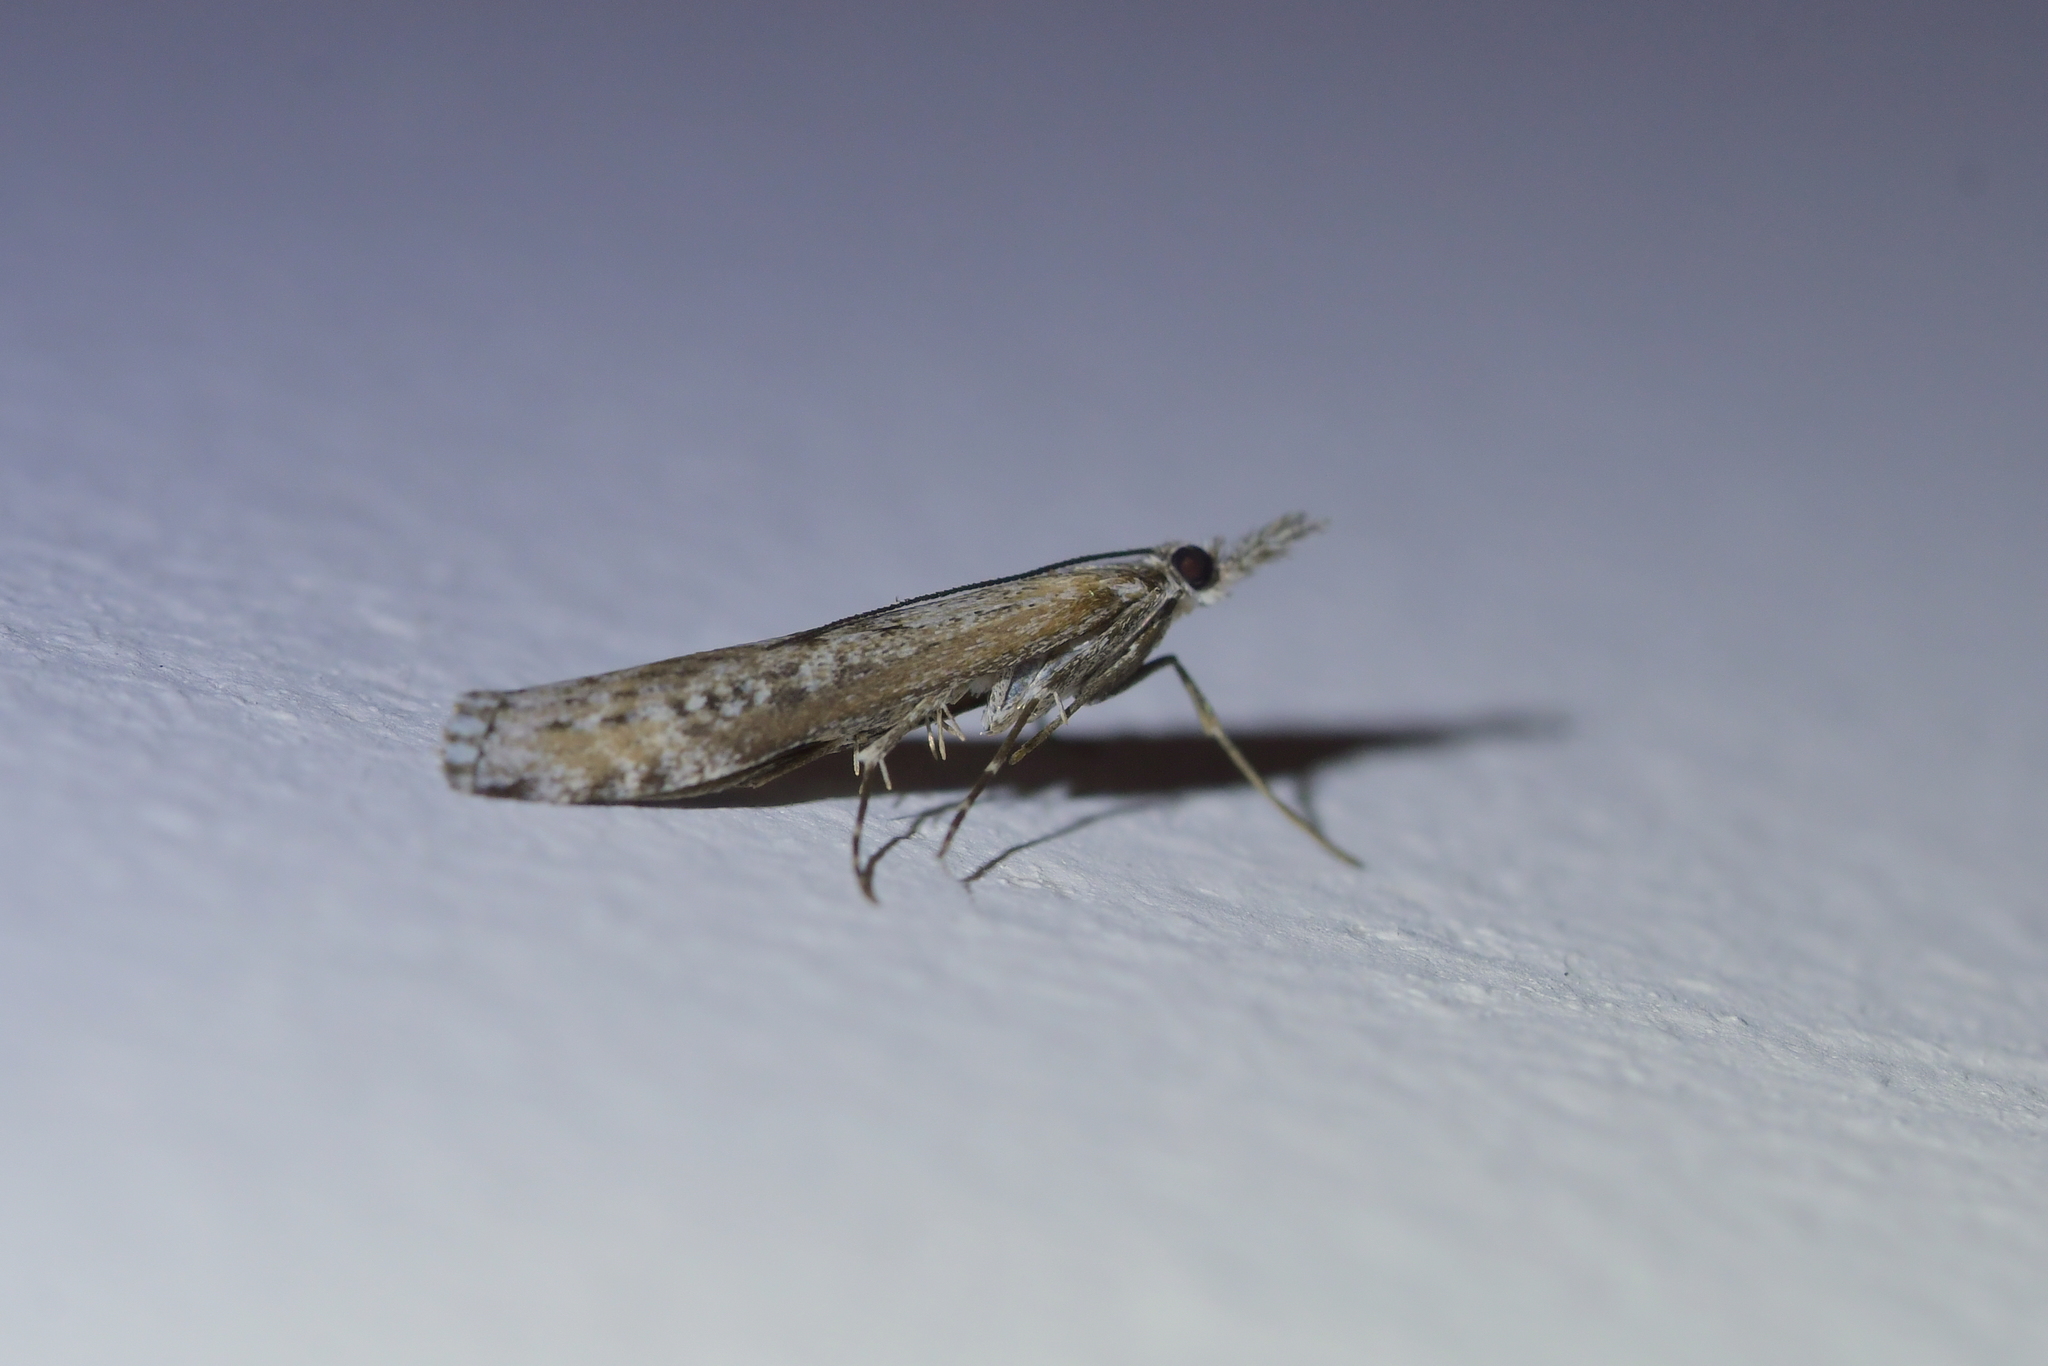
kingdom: Animalia
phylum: Arthropoda
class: Insecta
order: Lepidoptera
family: Crambidae
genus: Orocrambus
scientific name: Orocrambus cyclopicus
